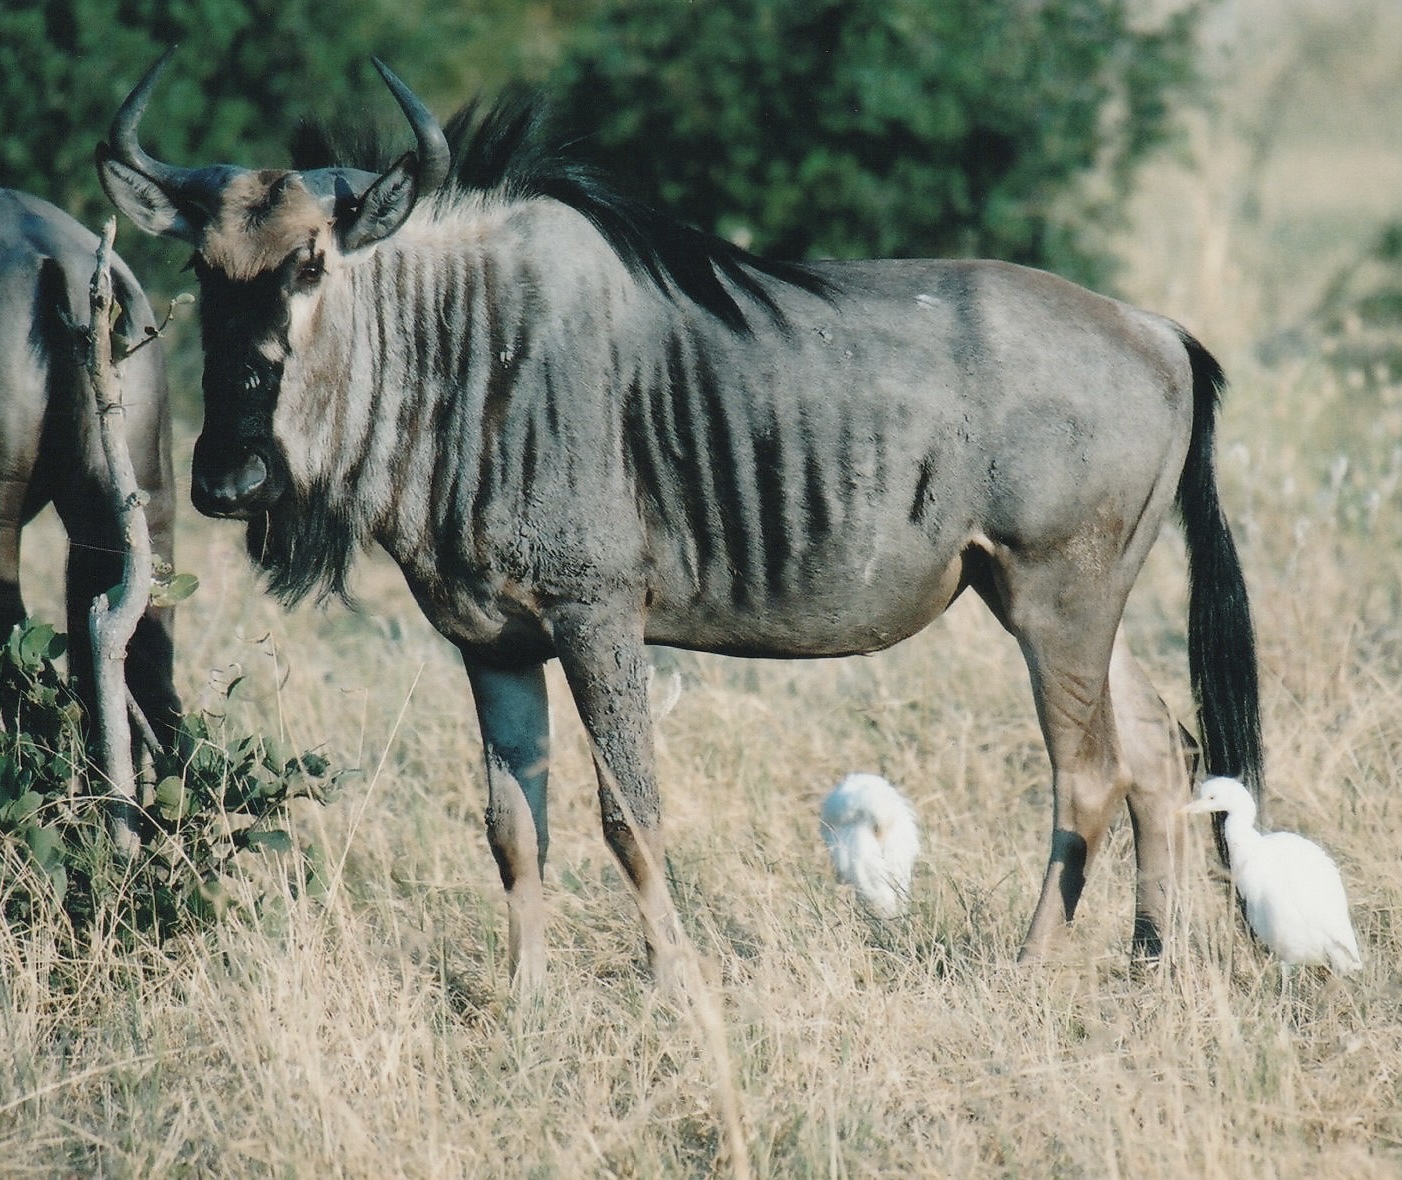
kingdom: Animalia
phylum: Chordata
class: Mammalia
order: Artiodactyla
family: Bovidae
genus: Connochaetes
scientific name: Connochaetes taurinus
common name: Blue wildebeest
